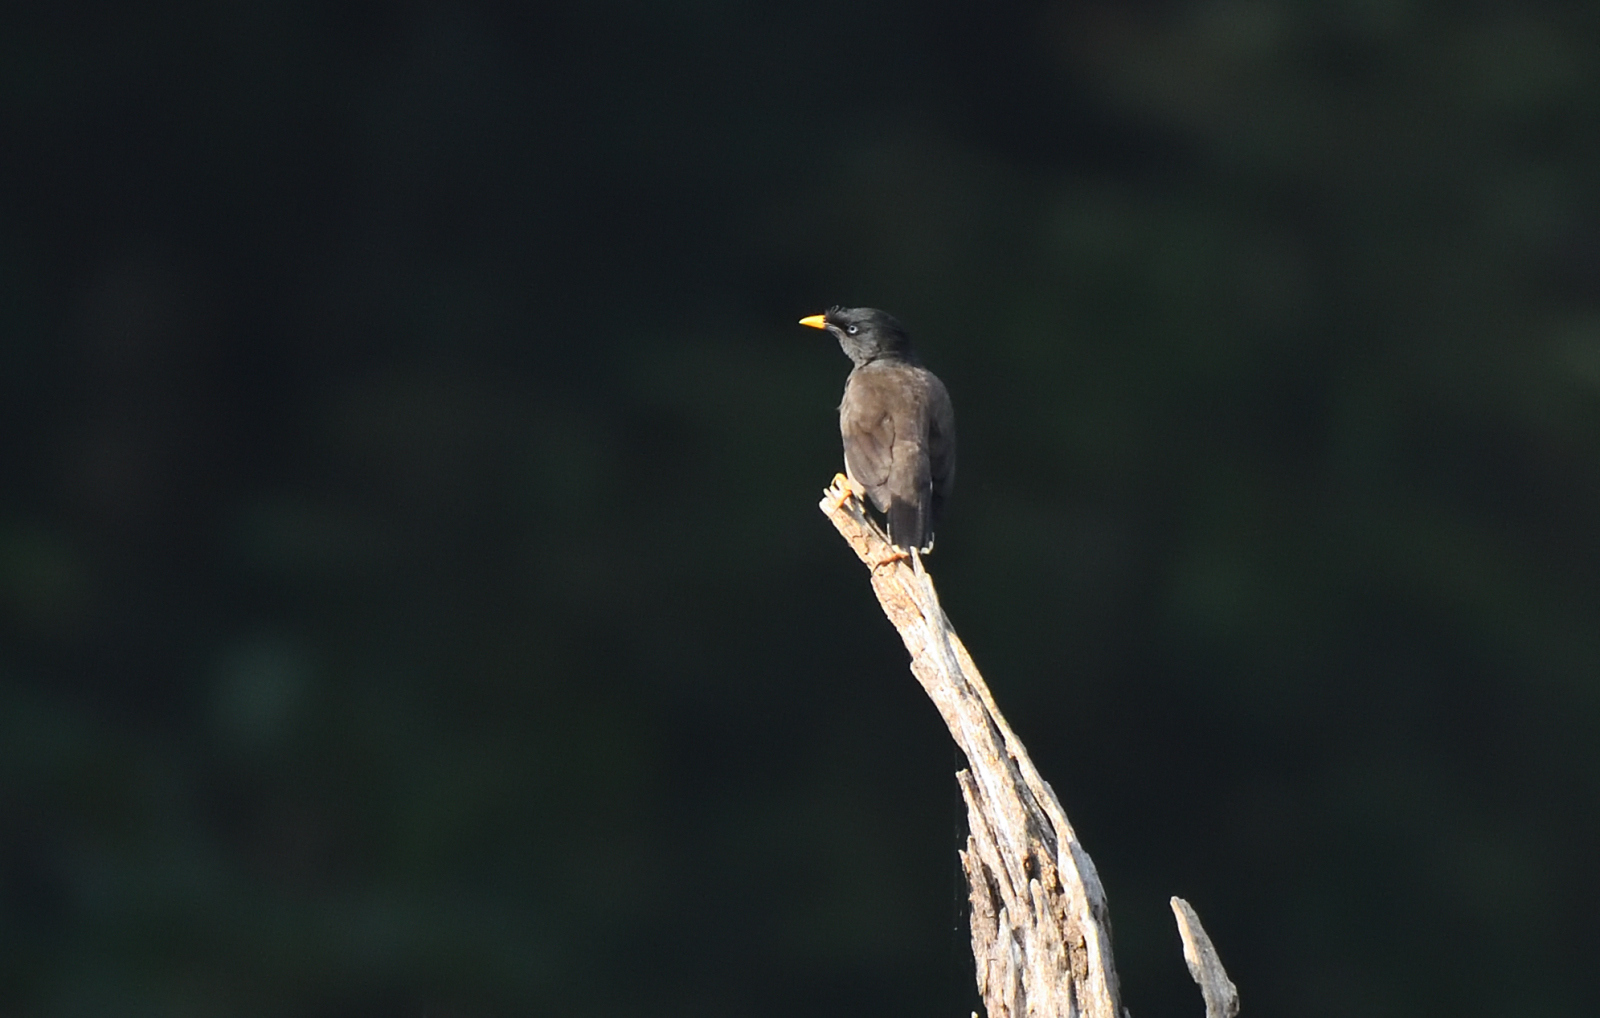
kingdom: Animalia
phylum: Chordata
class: Aves
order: Passeriformes
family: Sturnidae
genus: Acridotheres
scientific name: Acridotheres fuscus
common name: Jungle myna
